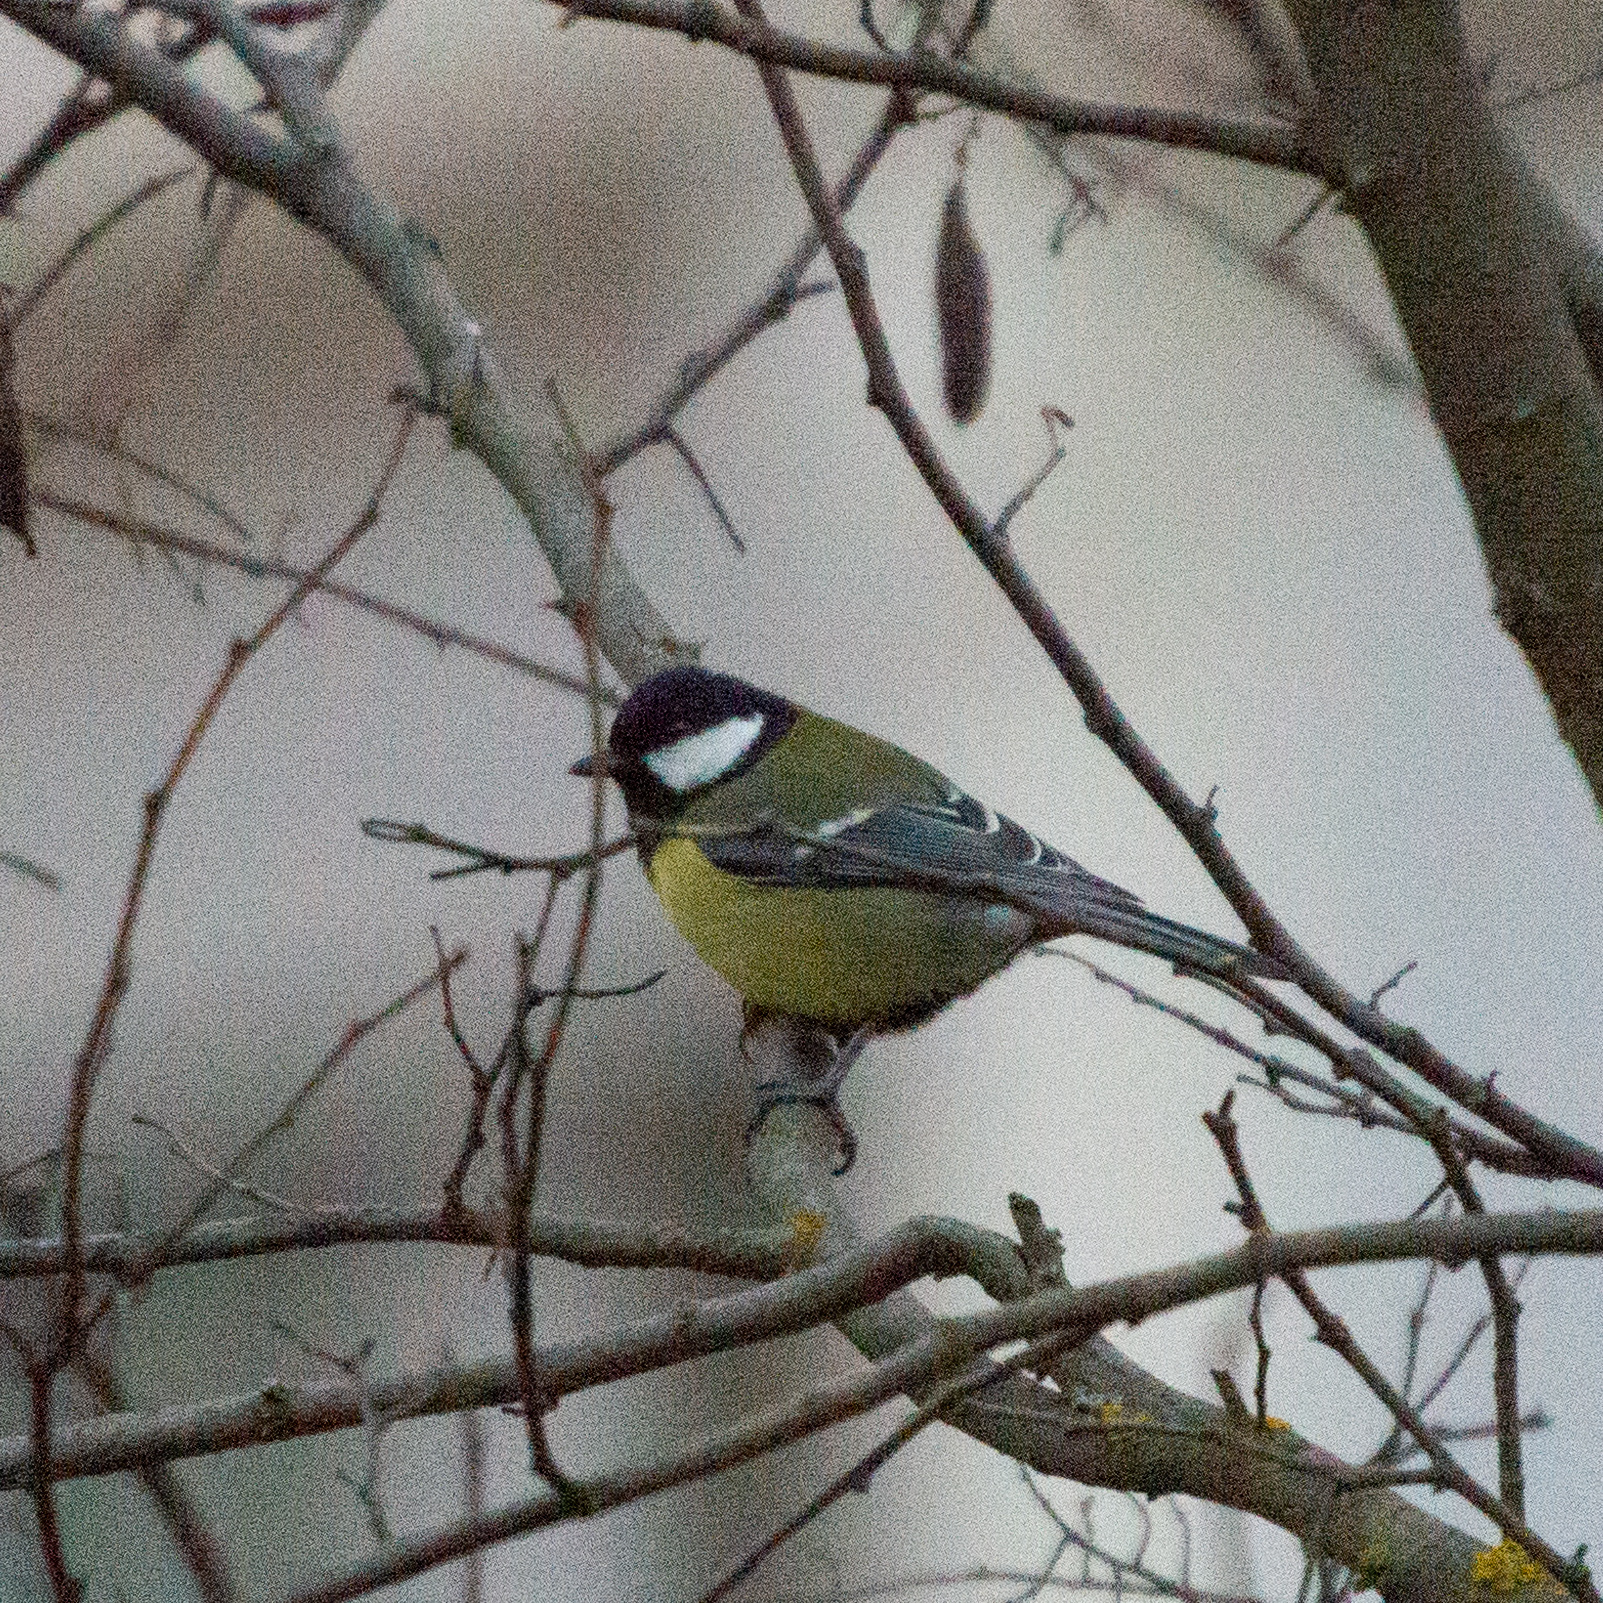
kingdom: Animalia
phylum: Chordata
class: Aves
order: Passeriformes
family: Paridae
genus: Parus
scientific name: Parus major
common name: Great tit
